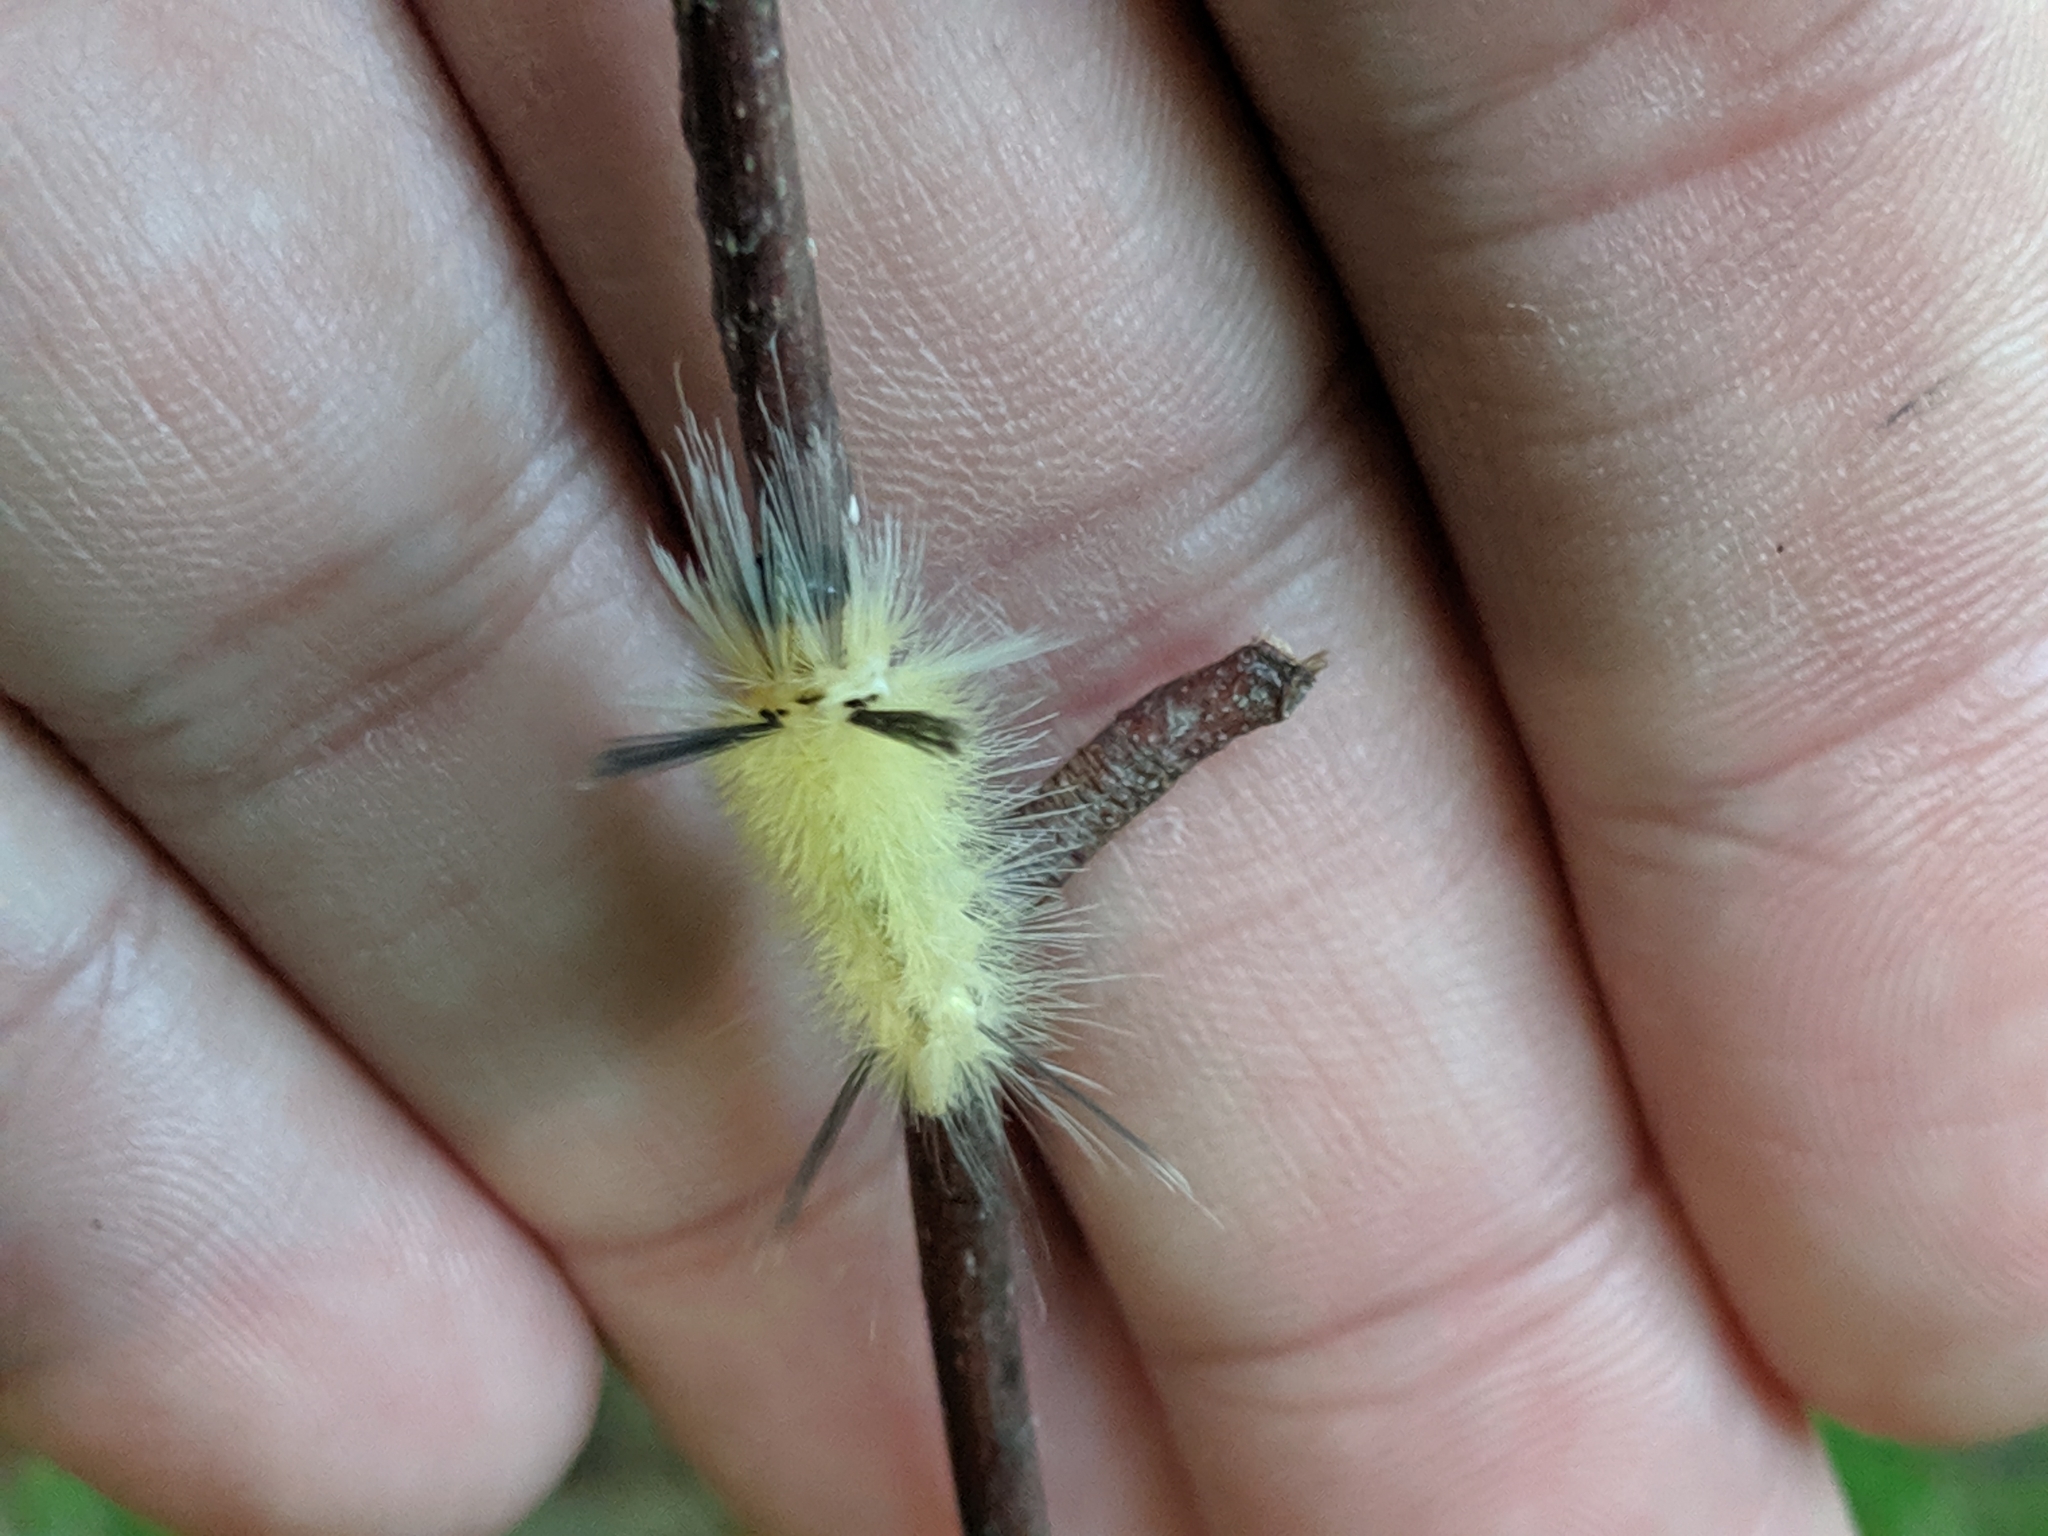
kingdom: Animalia
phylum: Arthropoda
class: Insecta
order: Lepidoptera
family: Erebidae
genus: Halysidota
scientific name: Halysidota tessellaris
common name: Banded tussock moth
